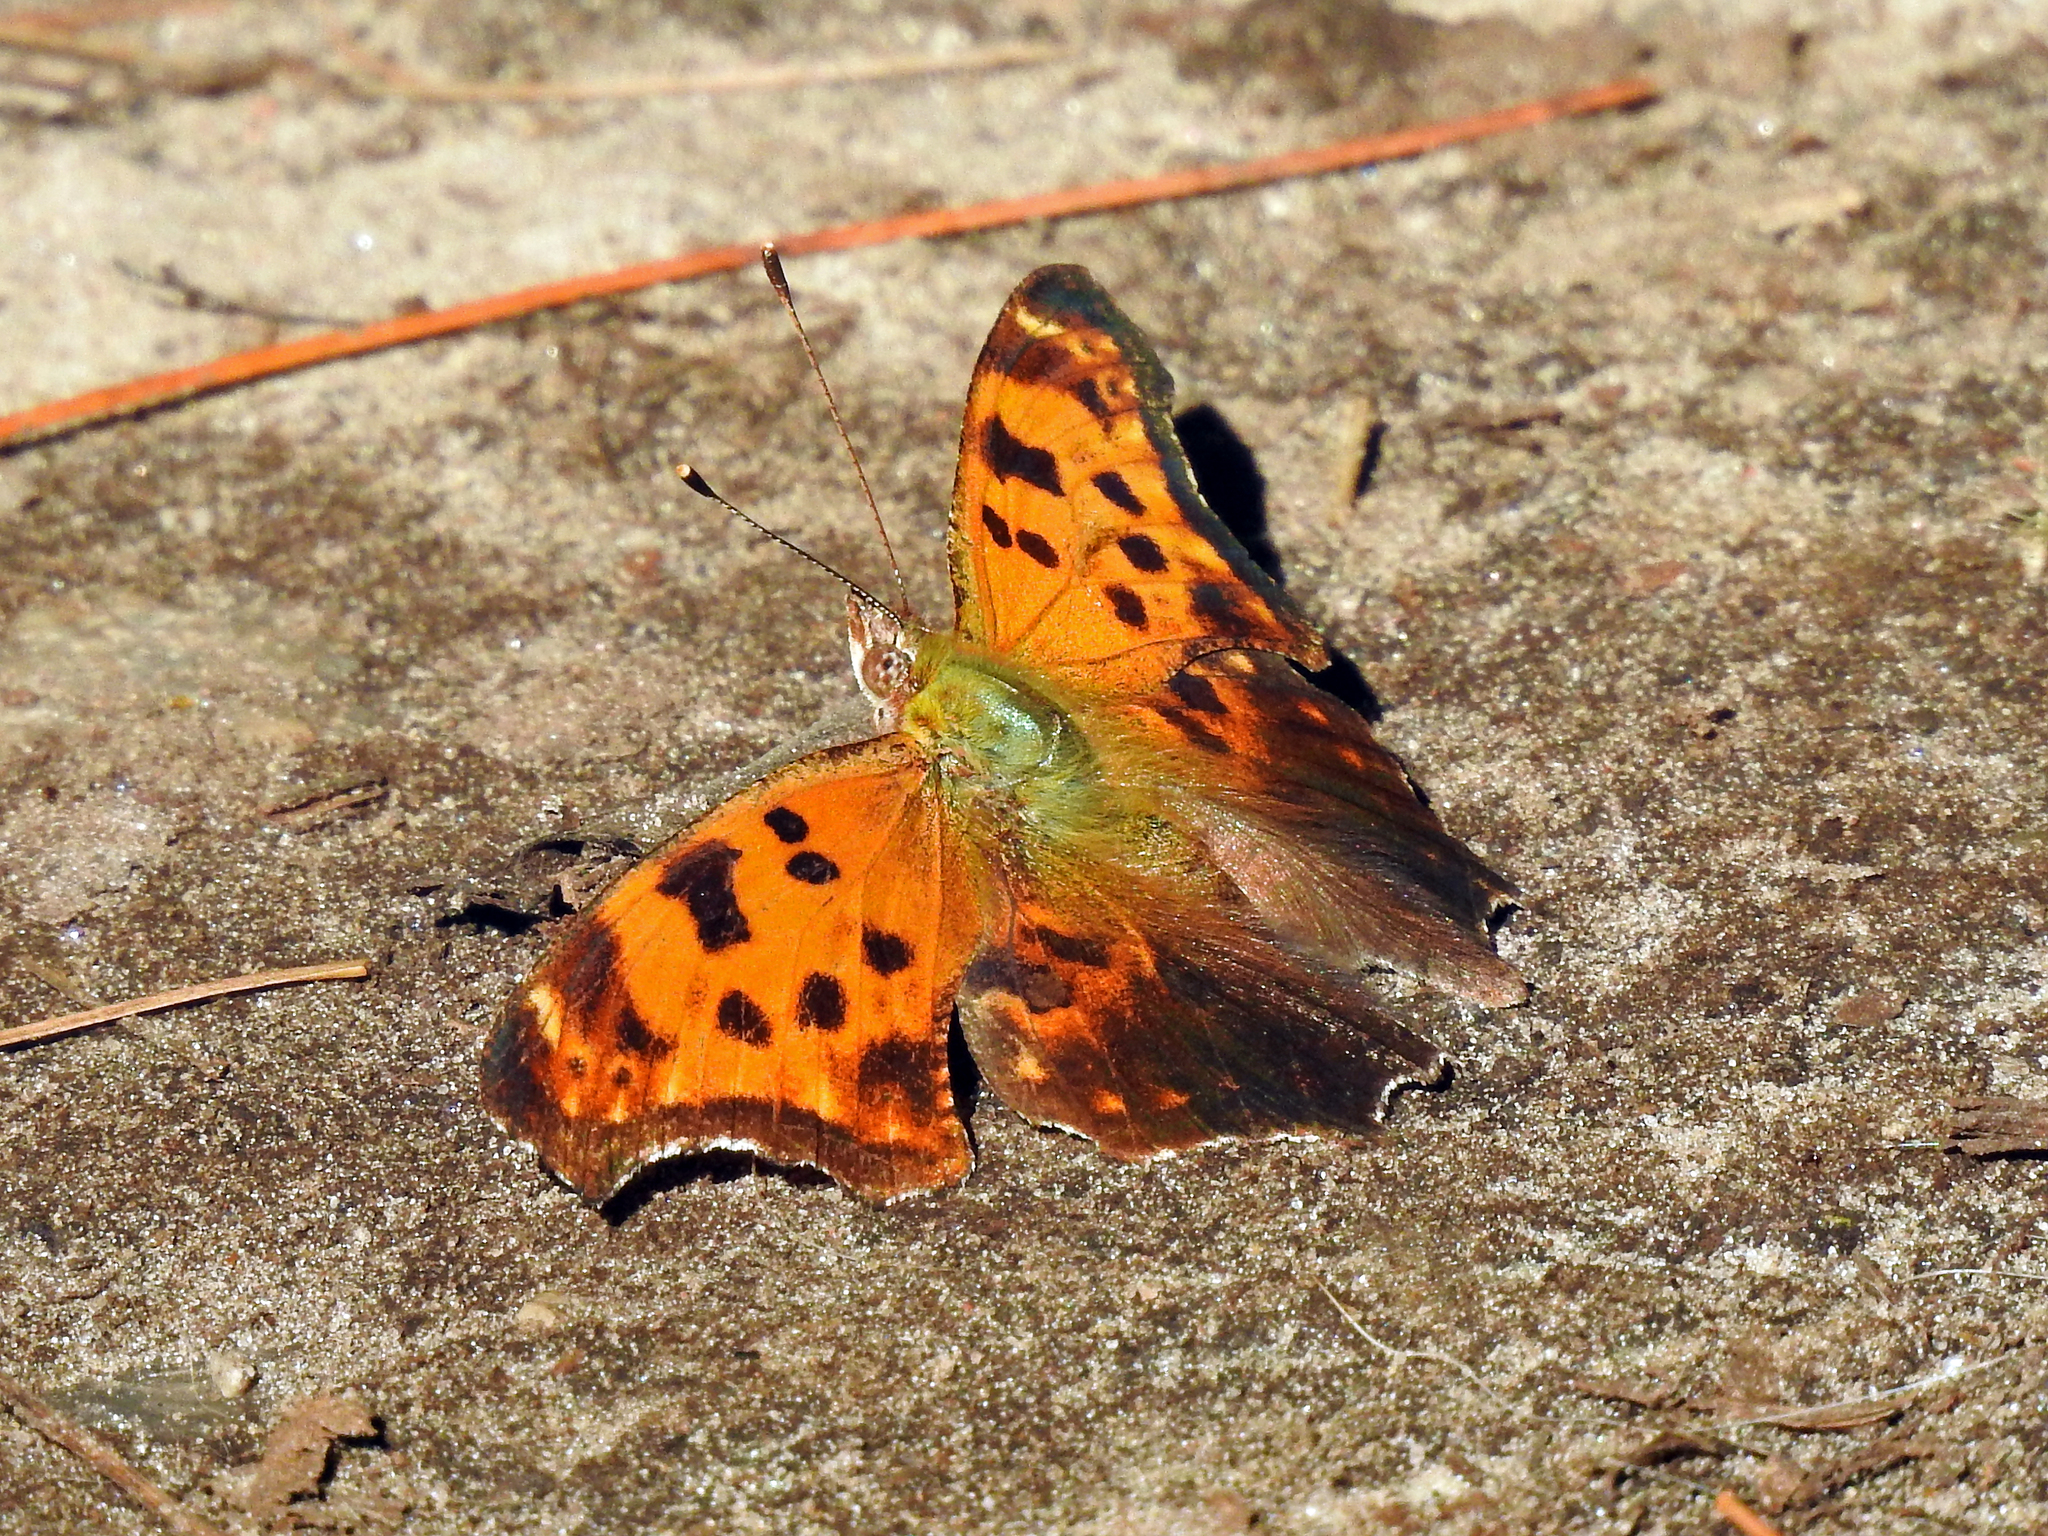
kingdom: Animalia
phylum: Arthropoda
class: Insecta
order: Lepidoptera
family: Nymphalidae
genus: Polygonia
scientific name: Polygonia comma
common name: Eastern comma
